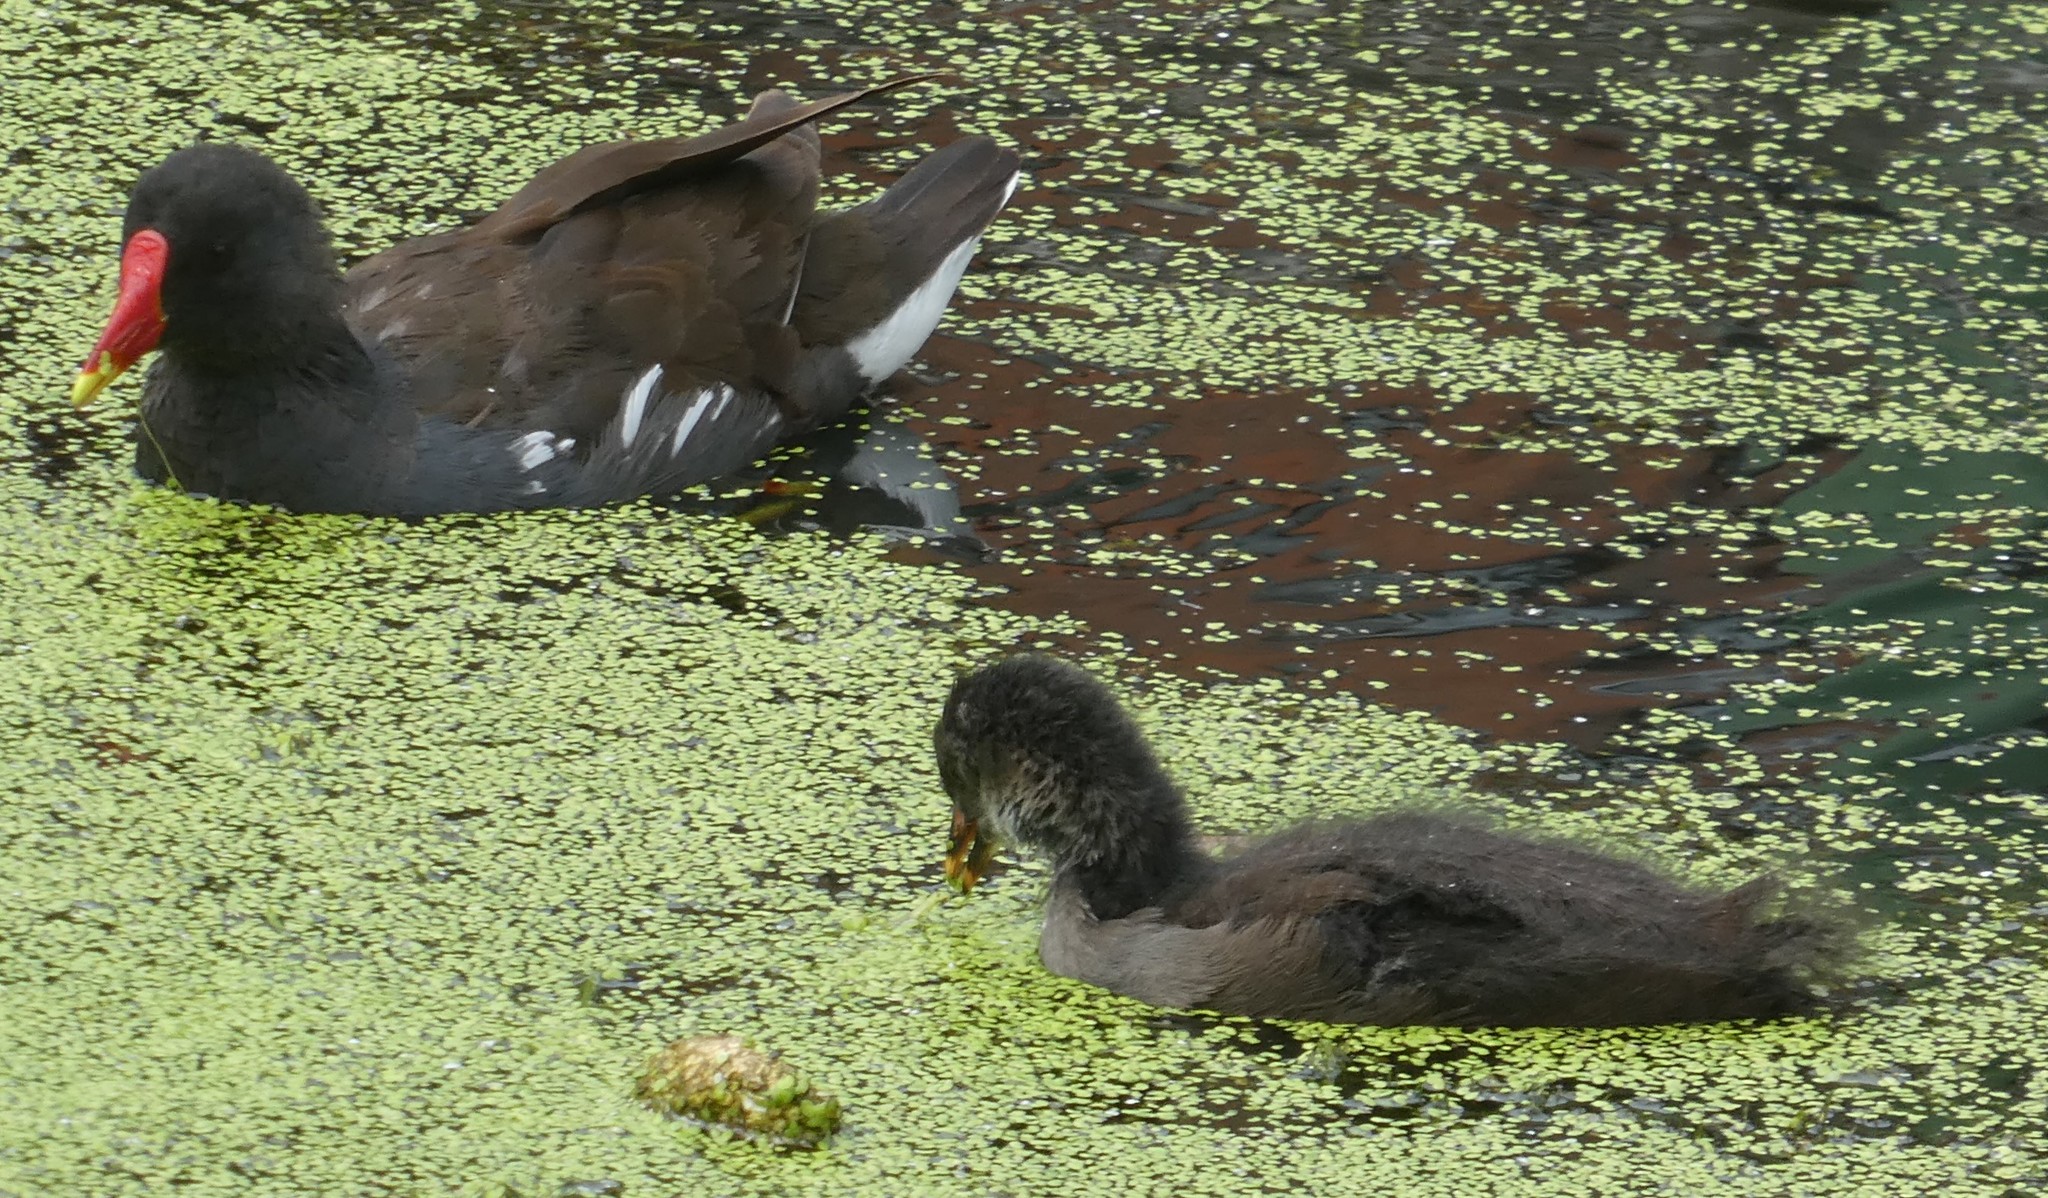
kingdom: Animalia
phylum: Chordata
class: Aves
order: Gruiformes
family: Rallidae
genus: Gallinula
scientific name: Gallinula chloropus
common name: Common moorhen
